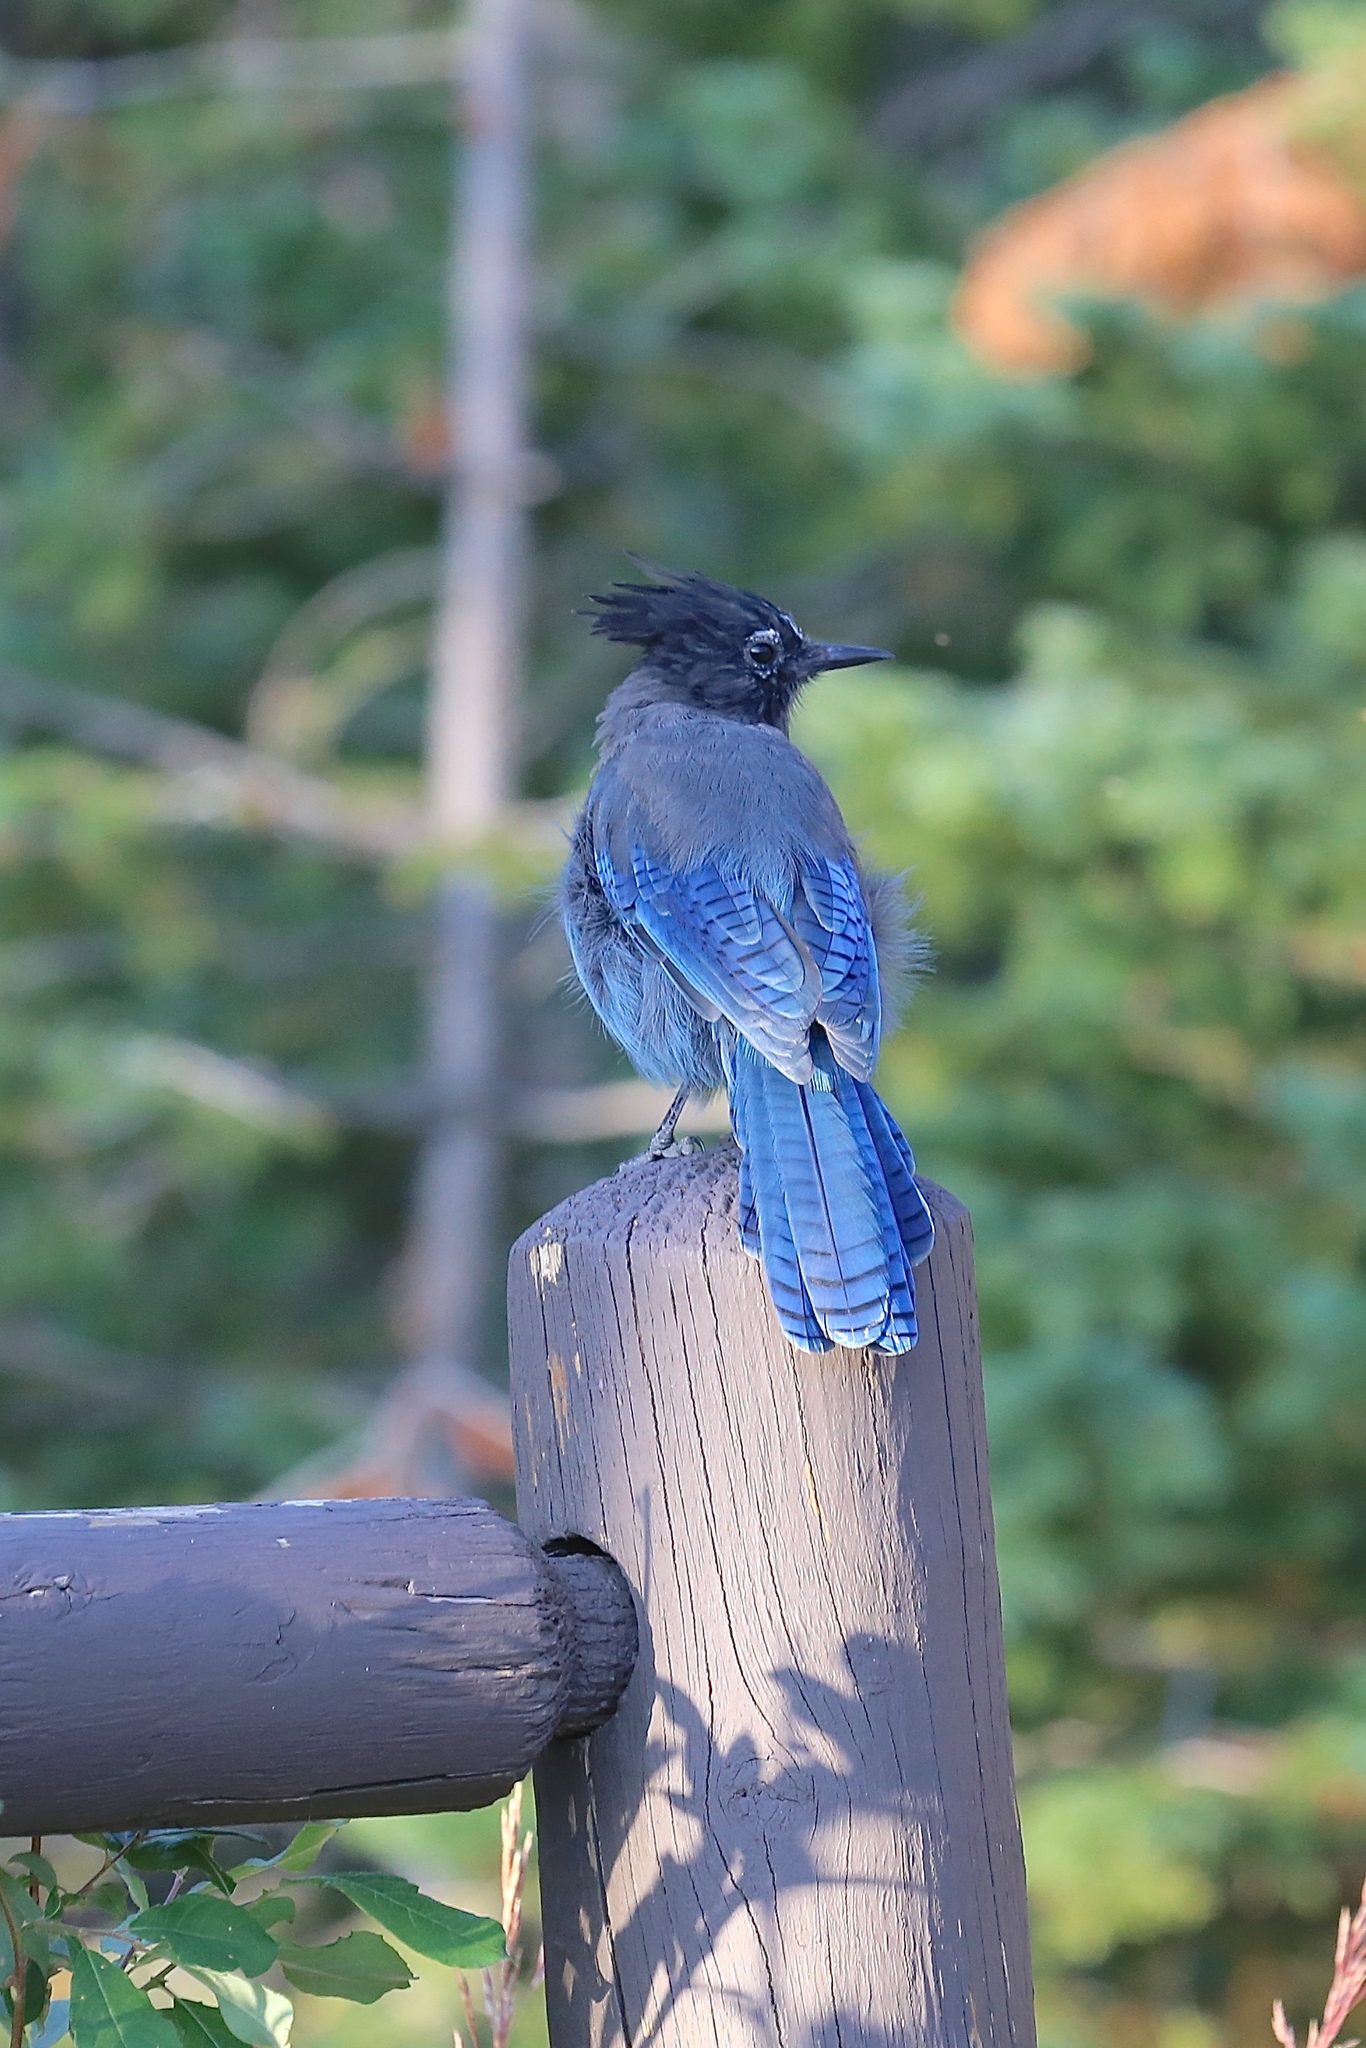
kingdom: Animalia
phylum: Chordata
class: Aves
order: Passeriformes
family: Corvidae
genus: Cyanocitta
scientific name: Cyanocitta stelleri
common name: Steller's jay
